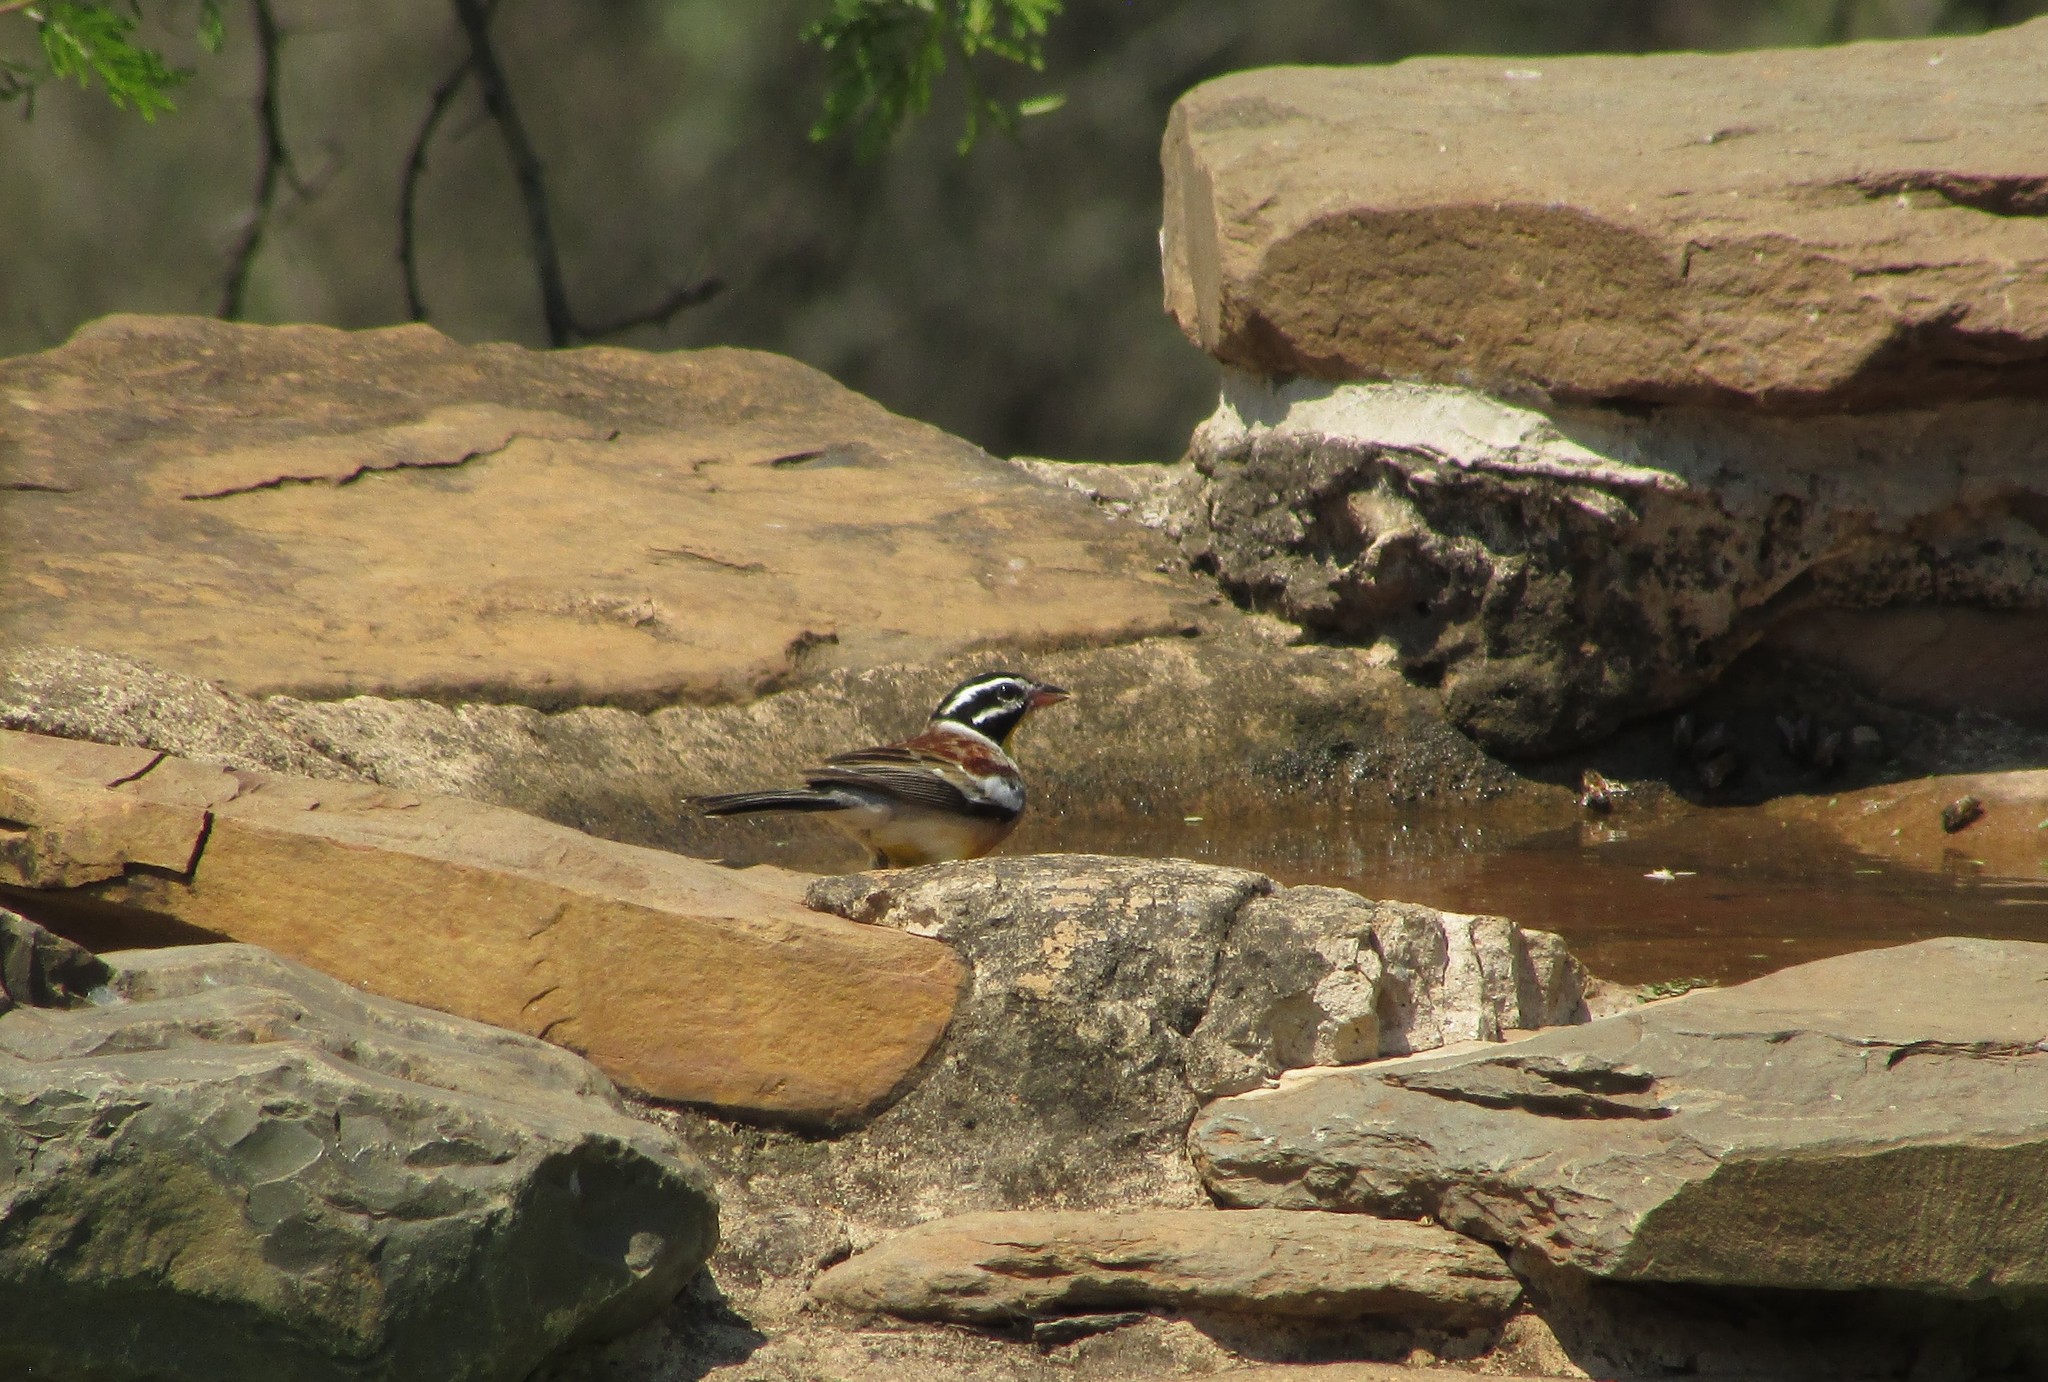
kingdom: Animalia
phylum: Chordata
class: Aves
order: Passeriformes
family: Emberizidae
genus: Emberiza
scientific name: Emberiza flaviventris
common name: Golden-breasted bunting
